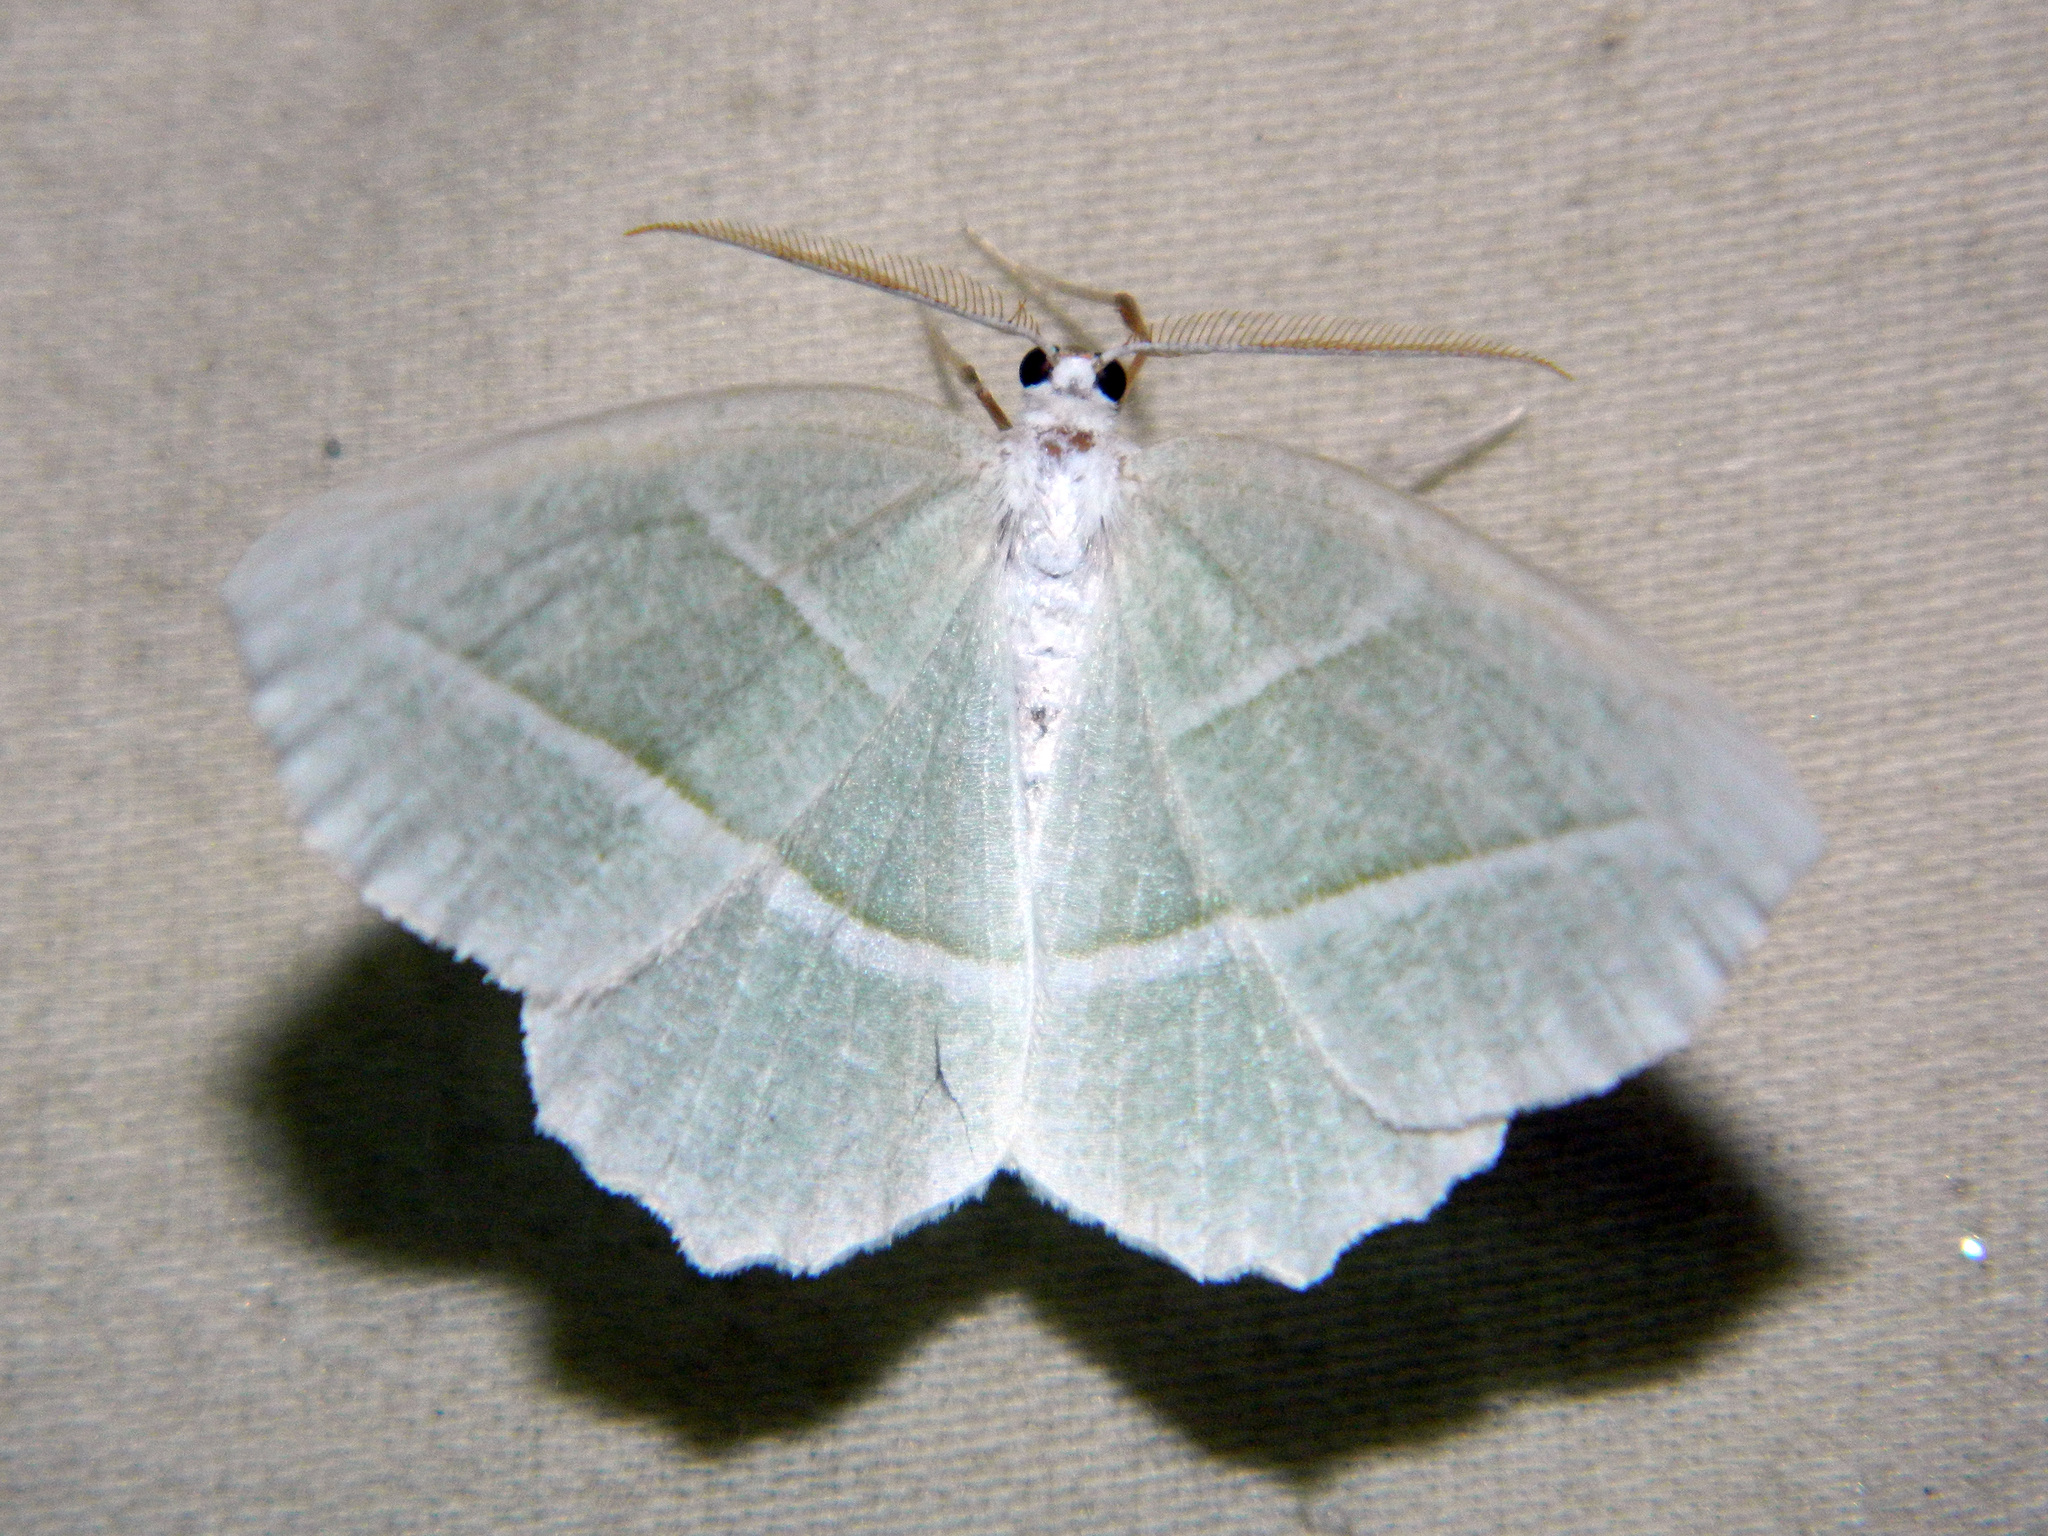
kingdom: Animalia
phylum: Arthropoda
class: Insecta
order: Lepidoptera
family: Geometridae
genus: Campaea
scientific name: Campaea perlata
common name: Fringed looper
